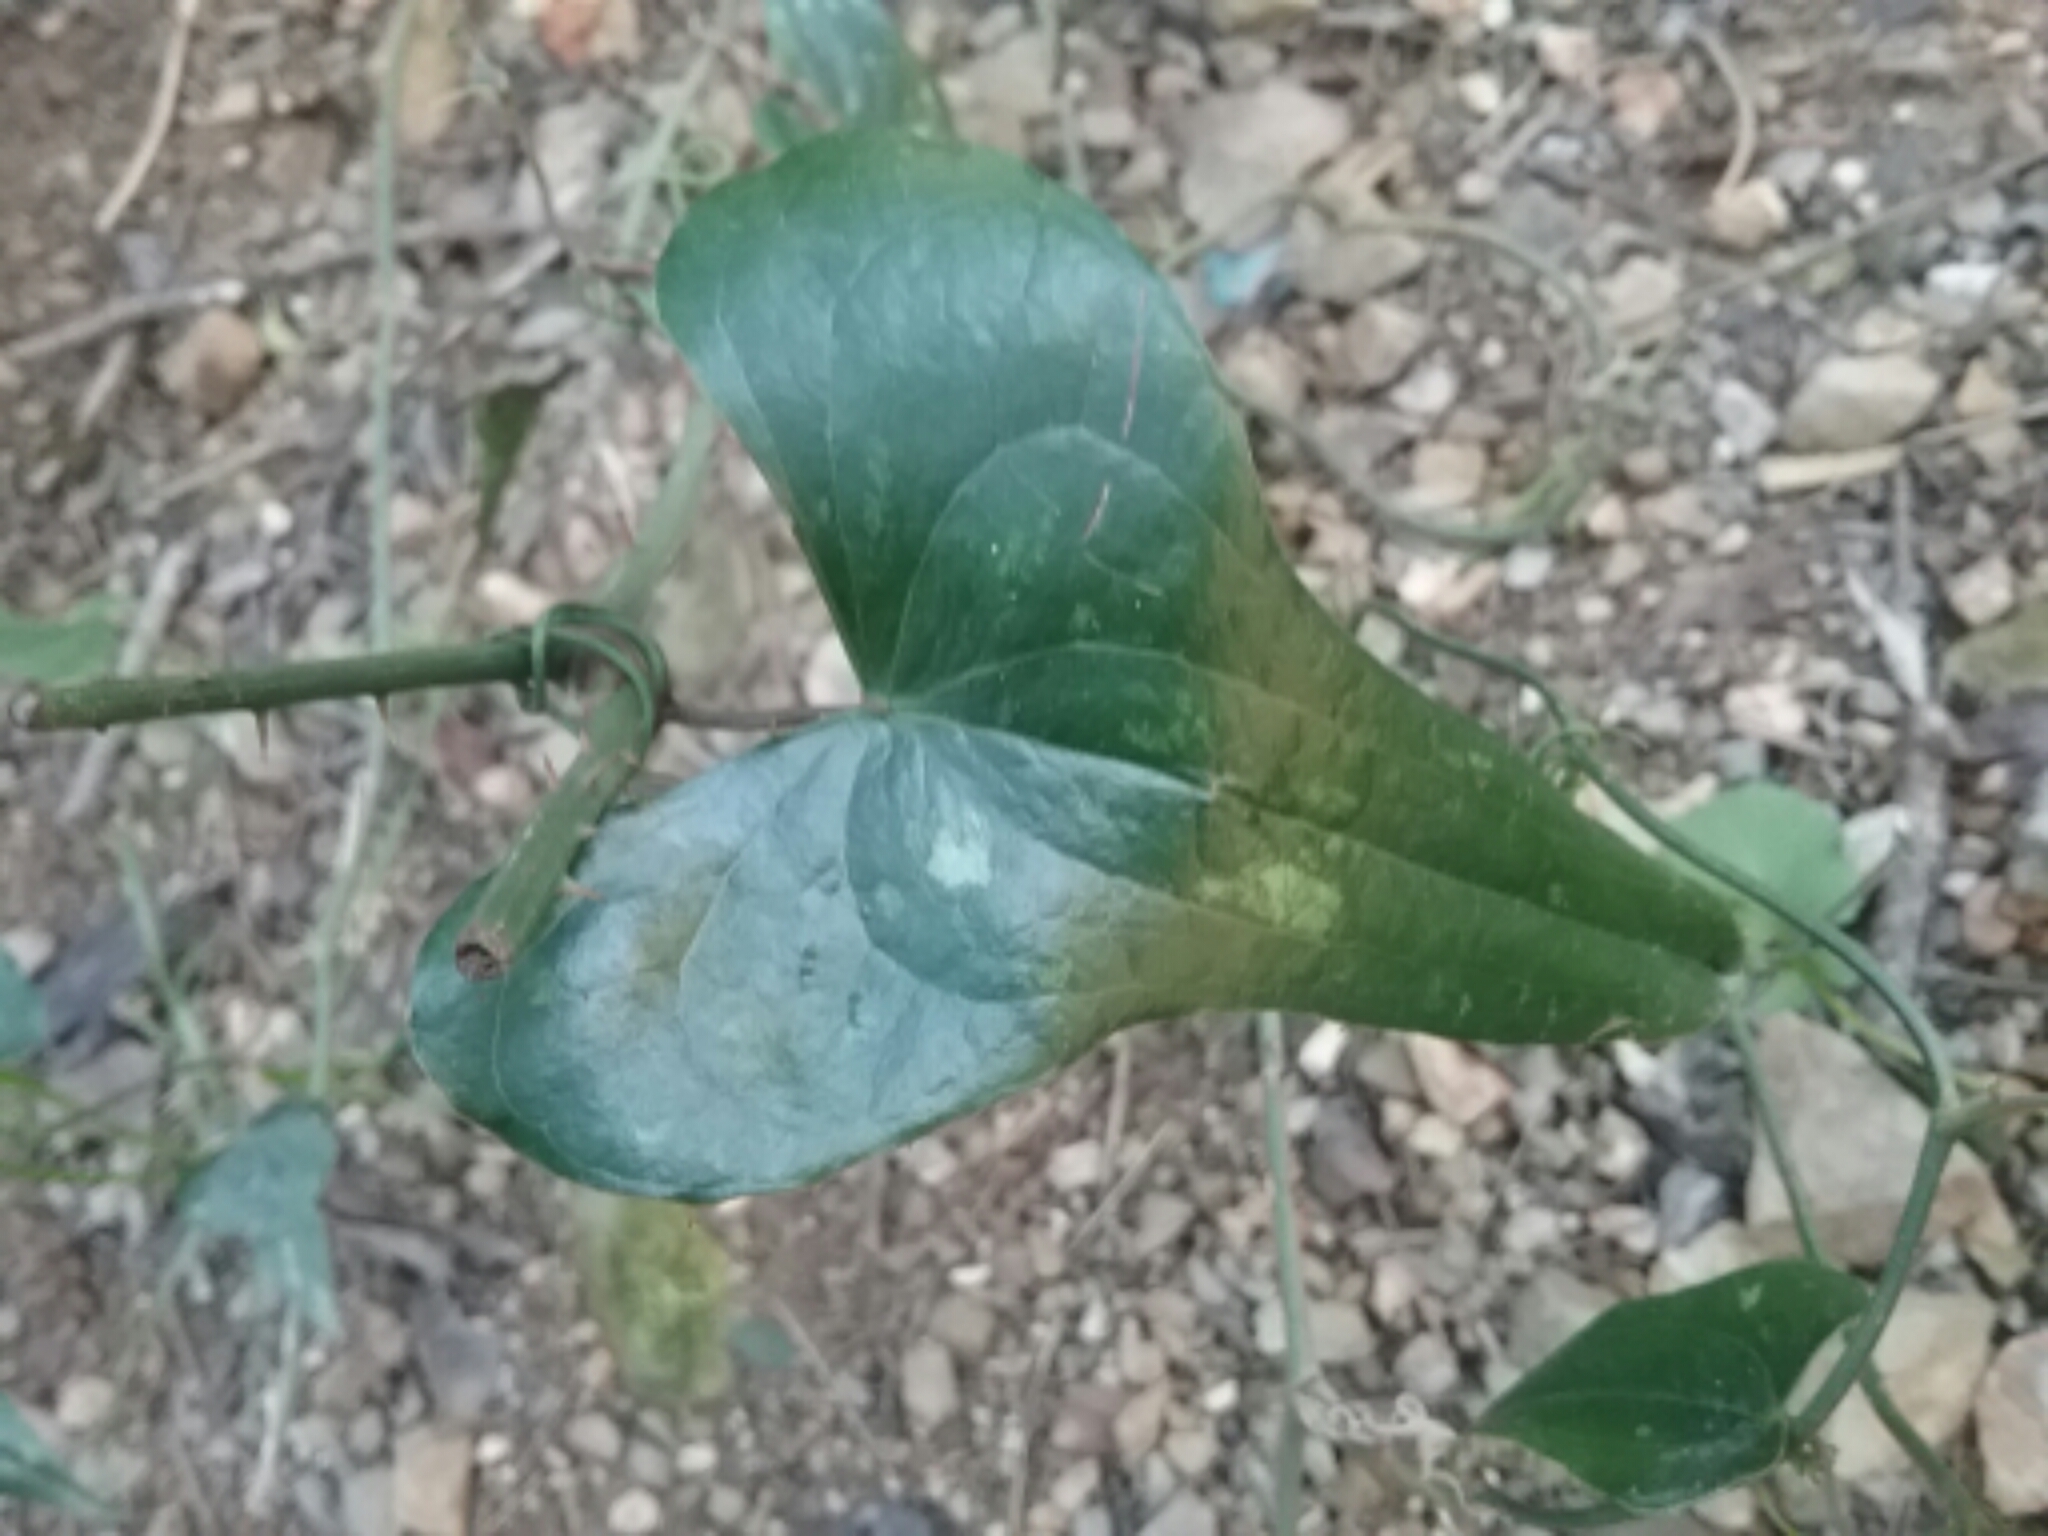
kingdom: Plantae
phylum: Tracheophyta
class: Liliopsida
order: Liliales
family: Smilacaceae
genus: Smilax
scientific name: Smilax aspera
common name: Common smilax
